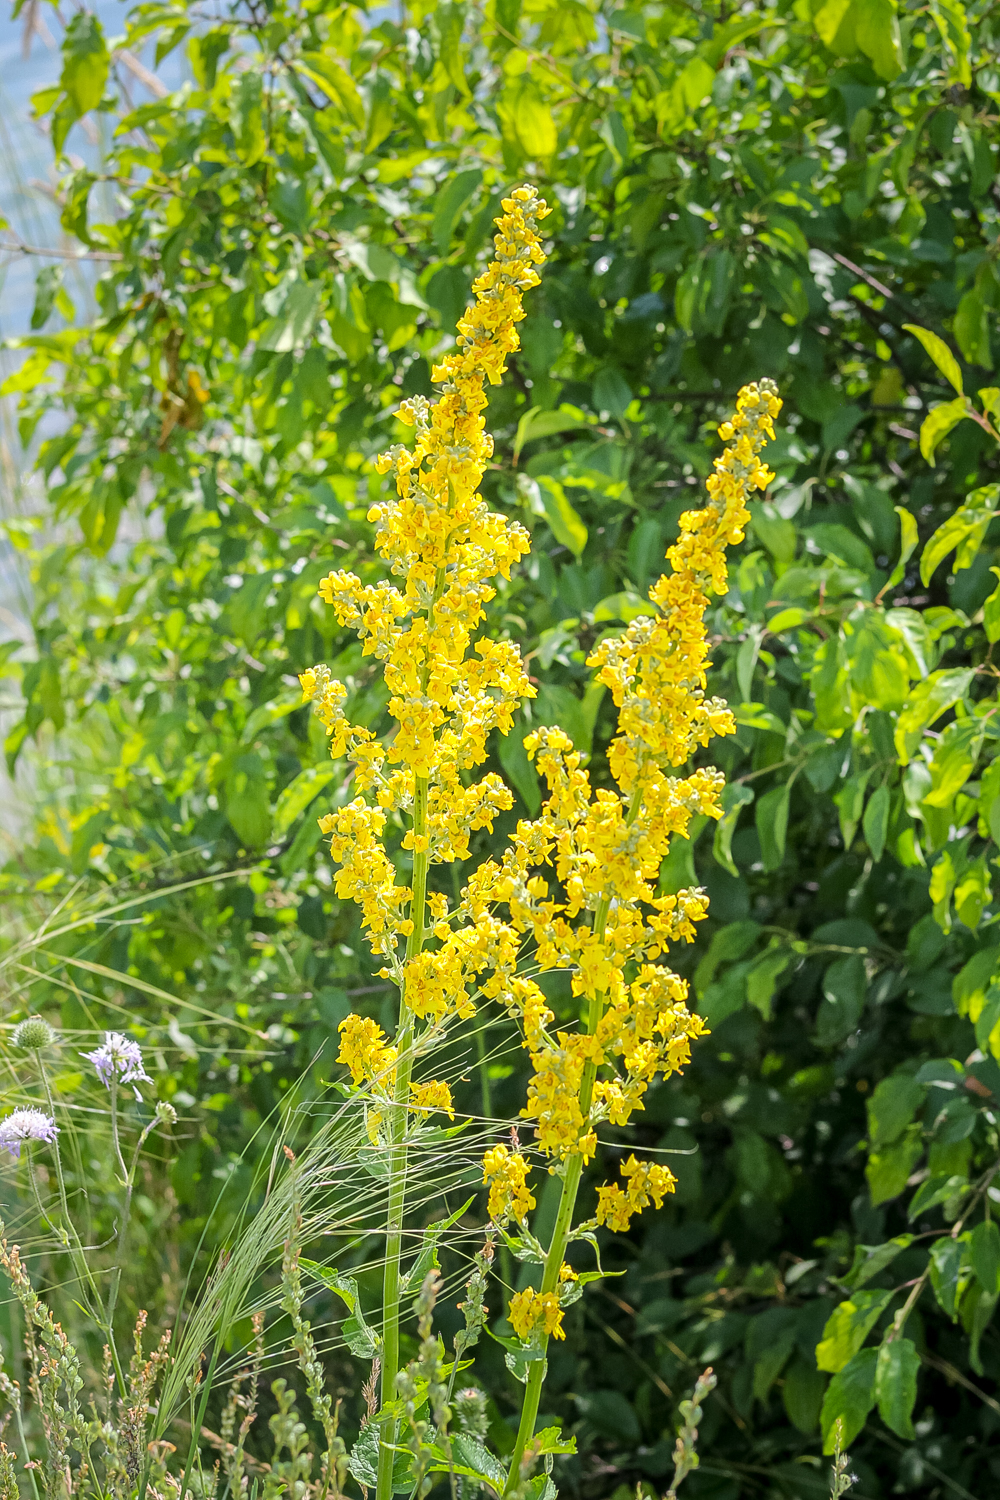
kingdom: Plantae
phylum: Tracheophyta
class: Magnoliopsida
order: Lamiales
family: Scrophulariaceae
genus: Verbascum
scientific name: Verbascum lychnitis
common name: White mullein
